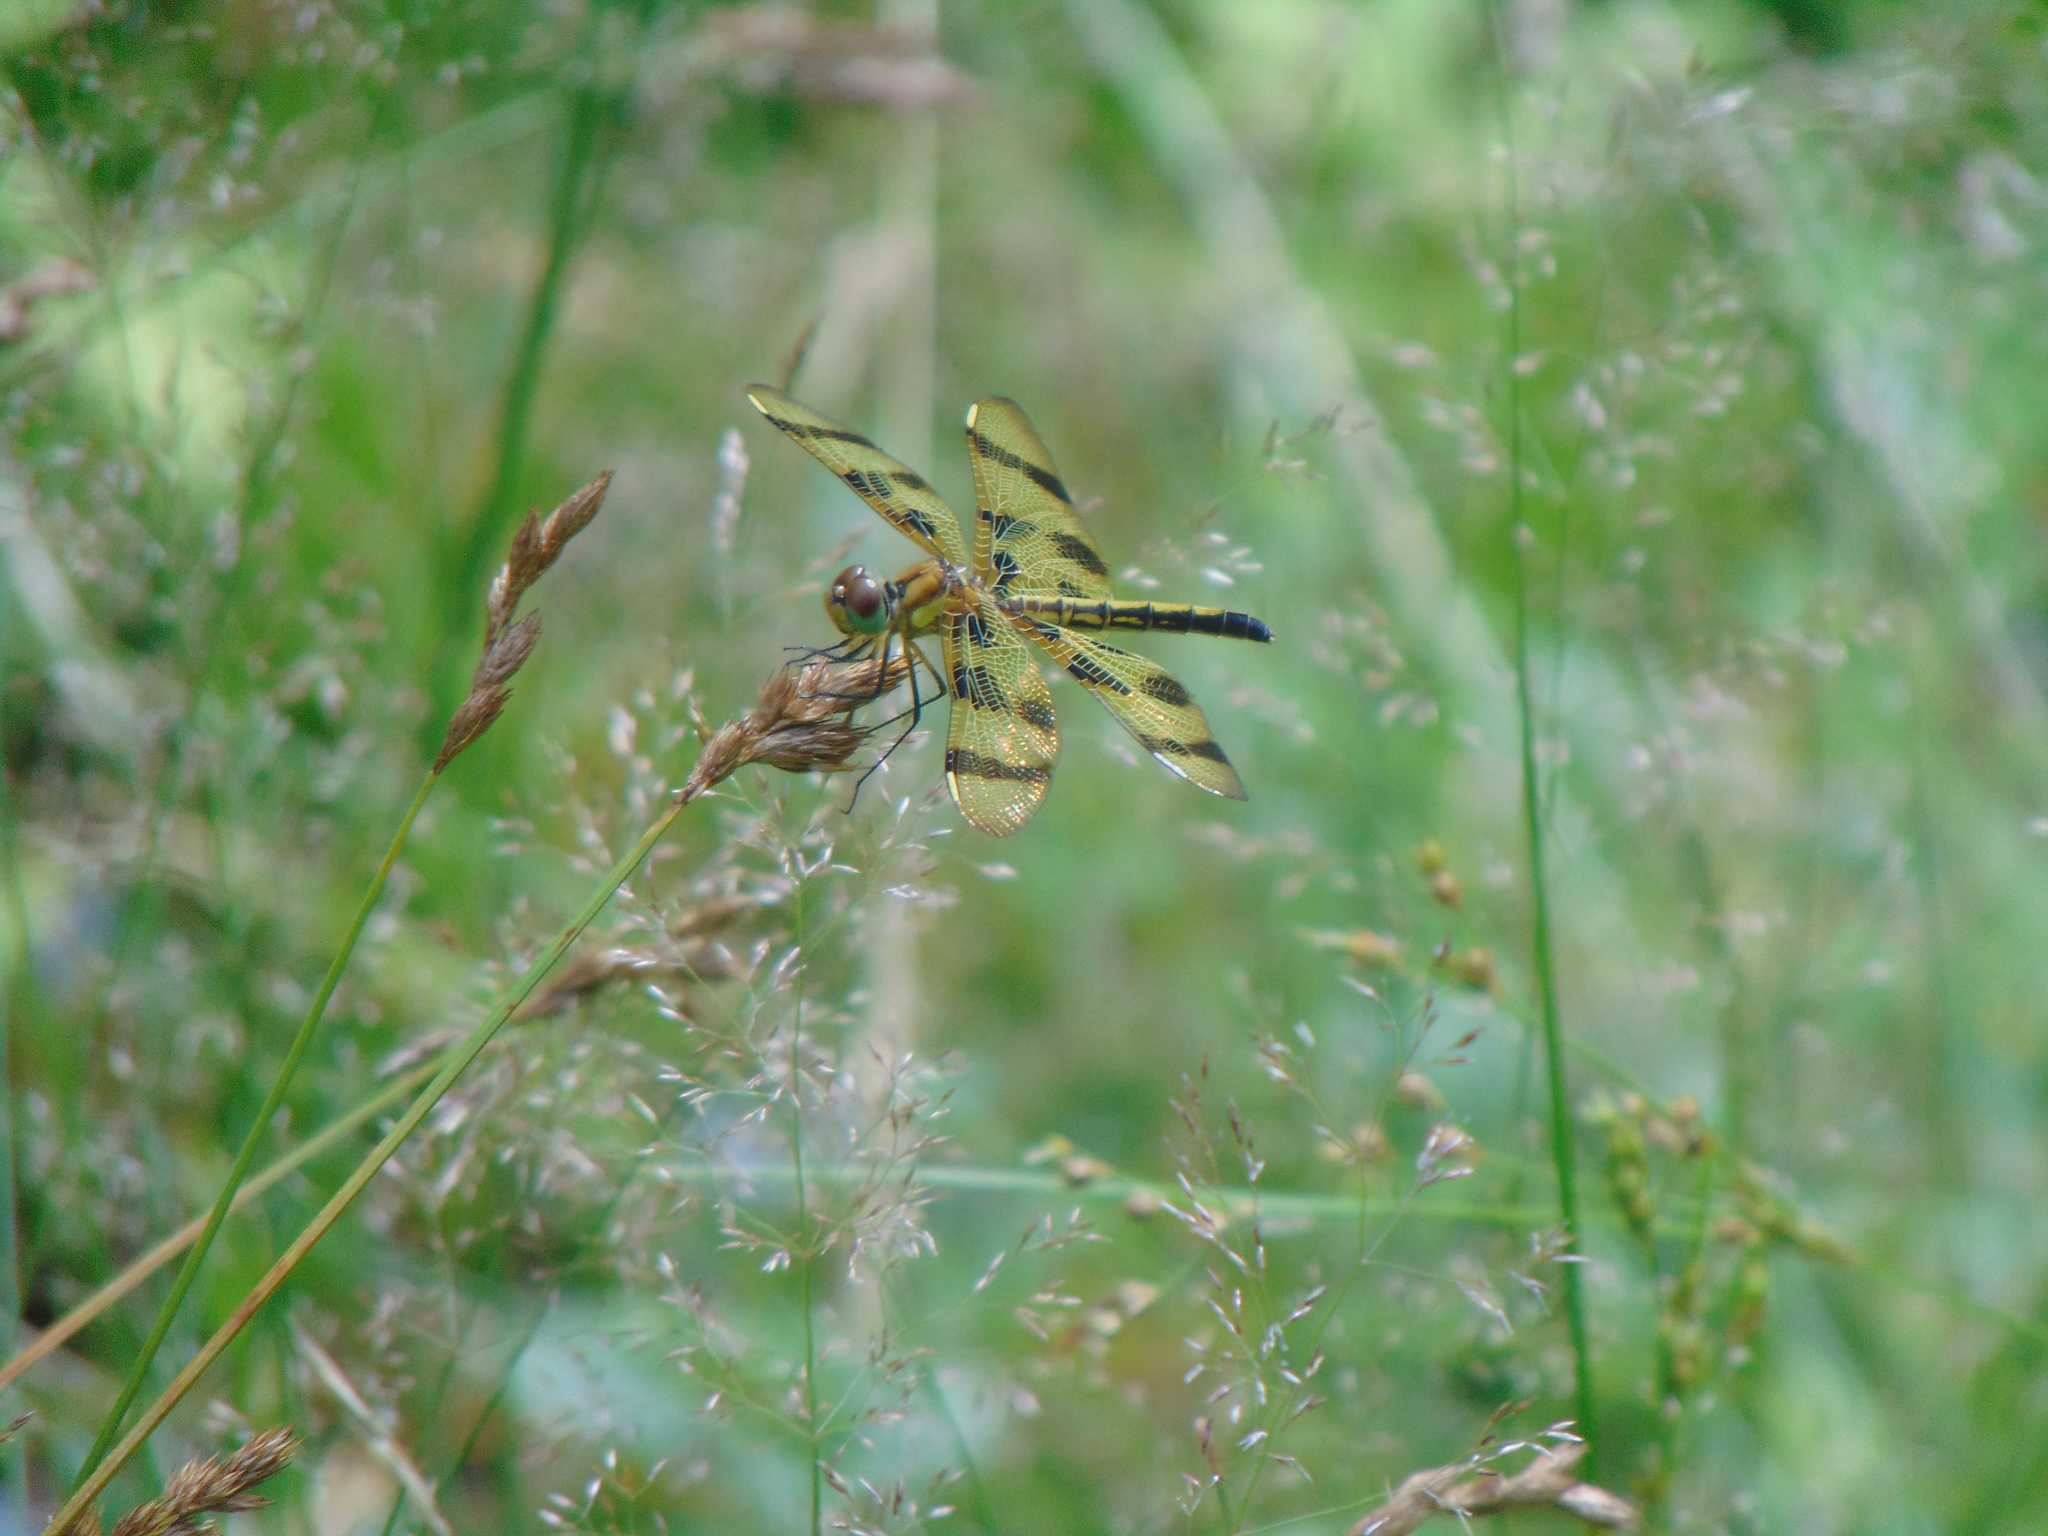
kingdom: Animalia
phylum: Arthropoda
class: Insecta
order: Odonata
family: Libellulidae
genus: Celithemis
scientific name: Celithemis eponina
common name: Halloween pennant
